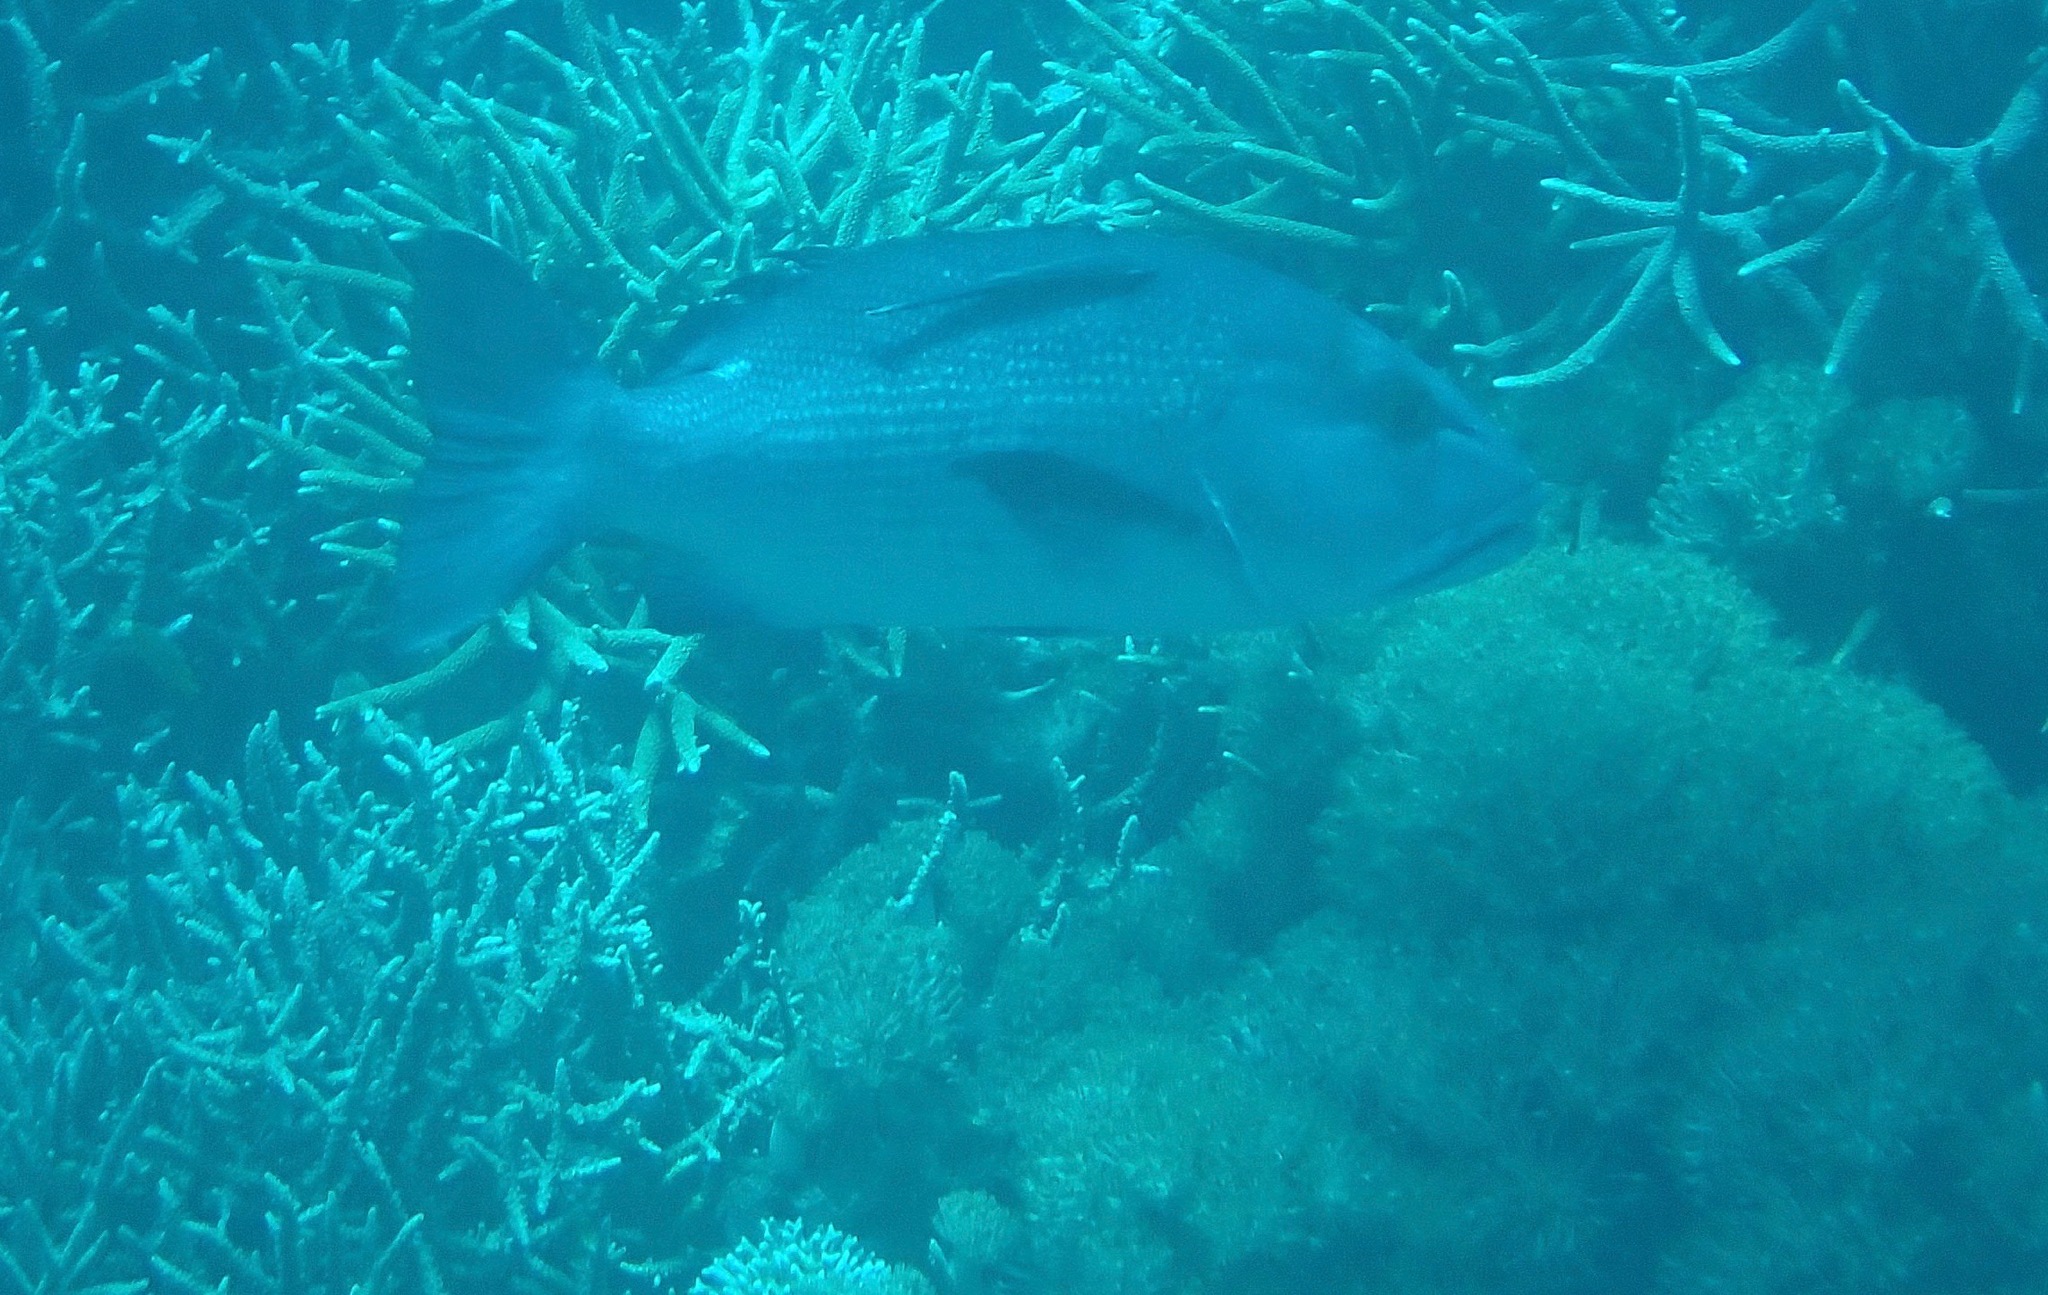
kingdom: Animalia
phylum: Chordata
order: Perciformes
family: Lutjanidae
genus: Lutjanus
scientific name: Lutjanus bohar
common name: Red bass
